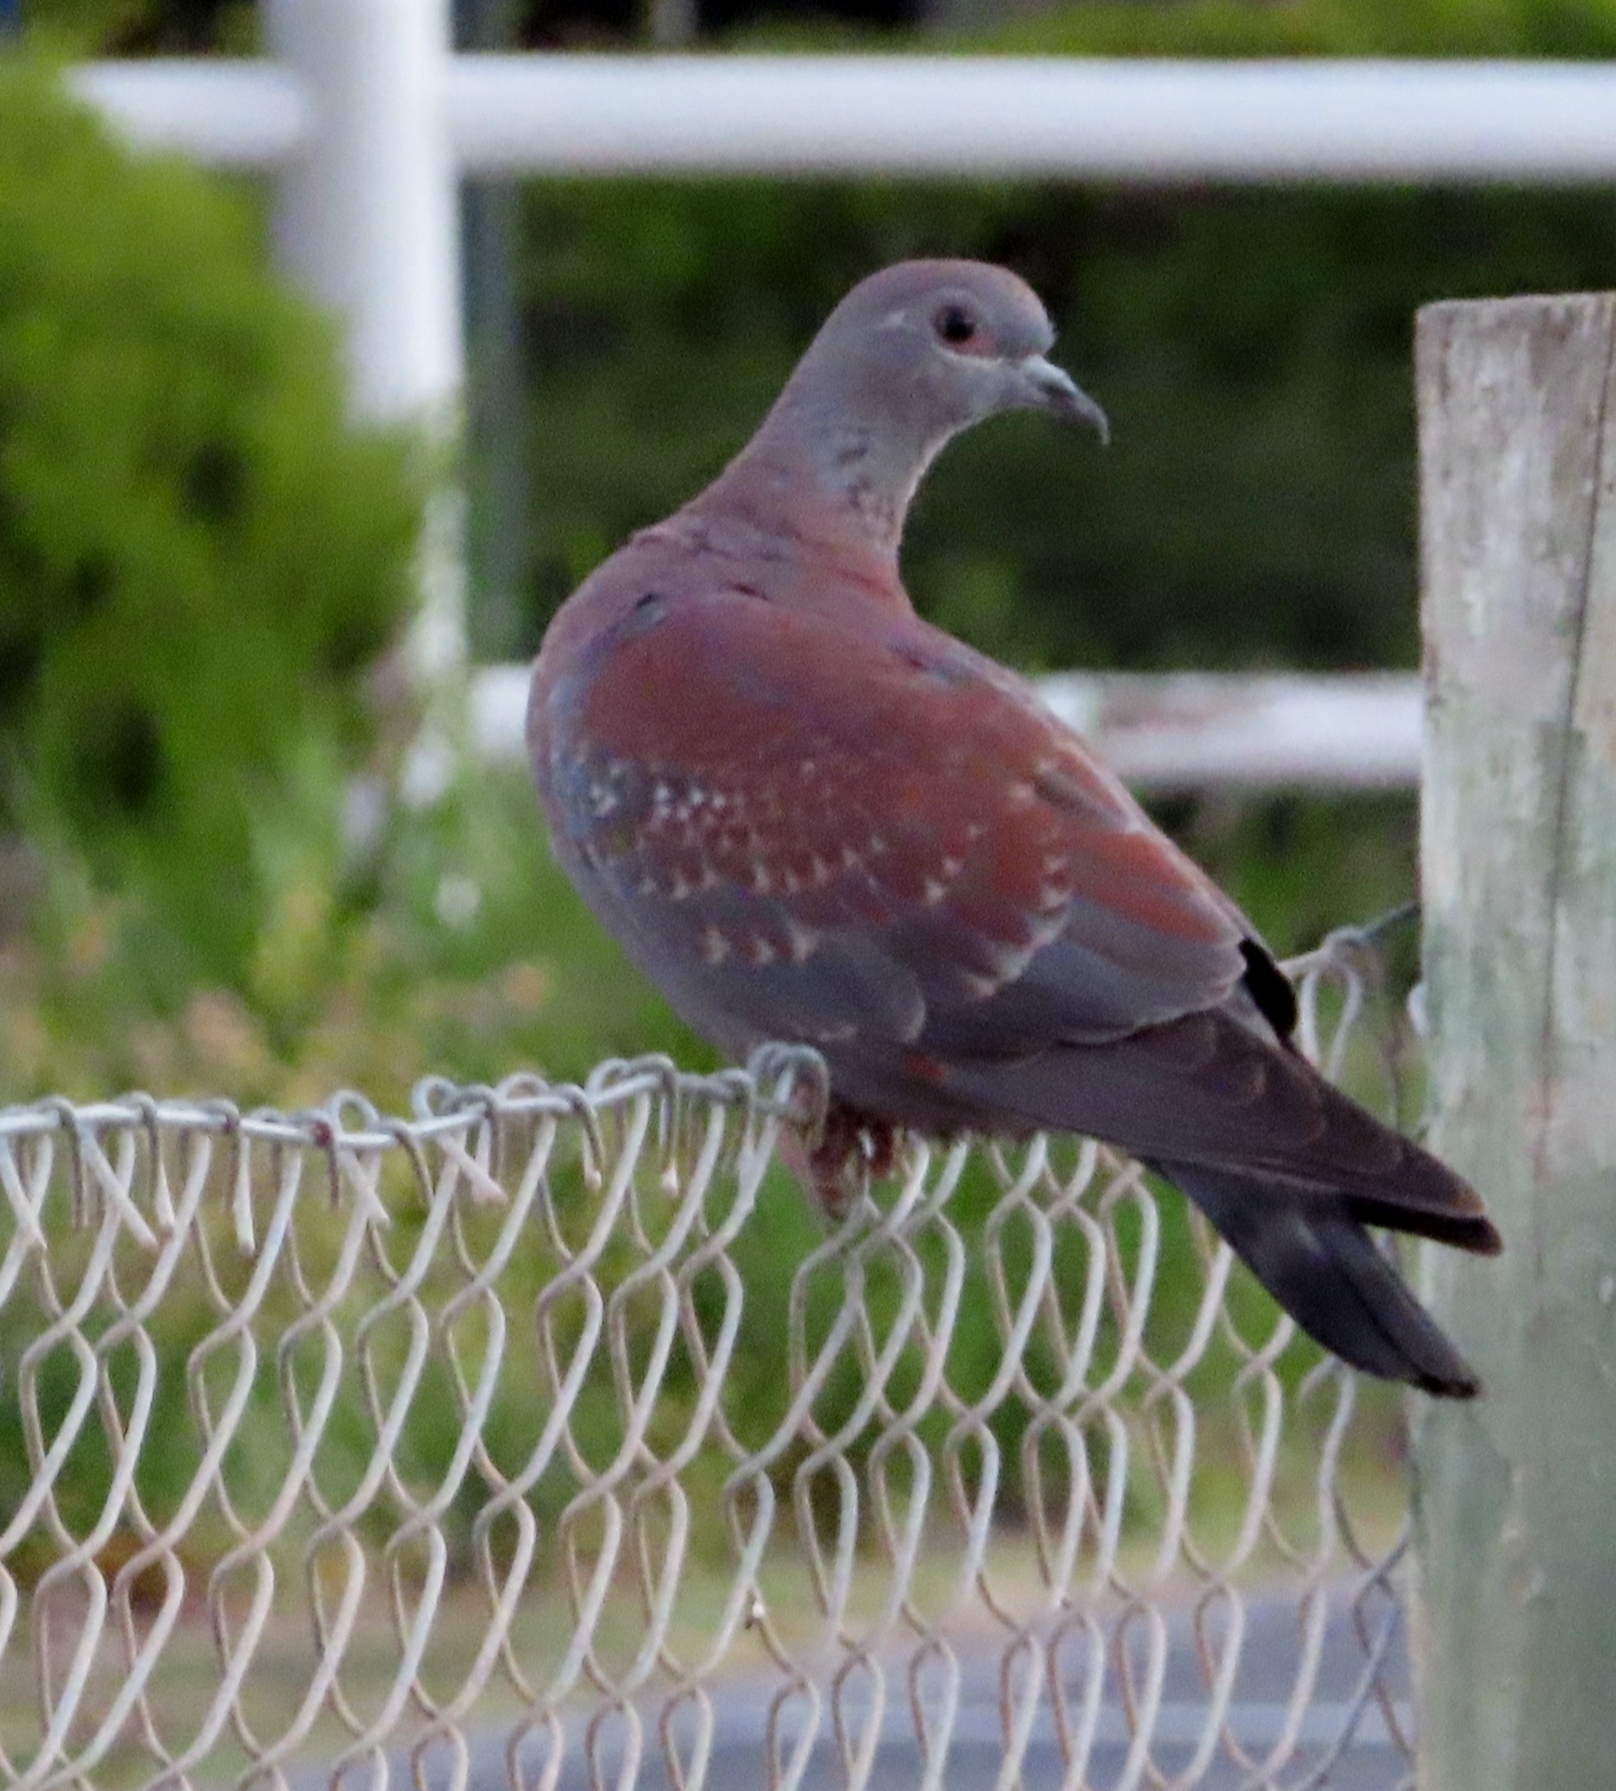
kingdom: Animalia
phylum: Chordata
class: Aves
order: Columbiformes
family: Columbidae
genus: Columba
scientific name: Columba guinea
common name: Speckled pigeon
